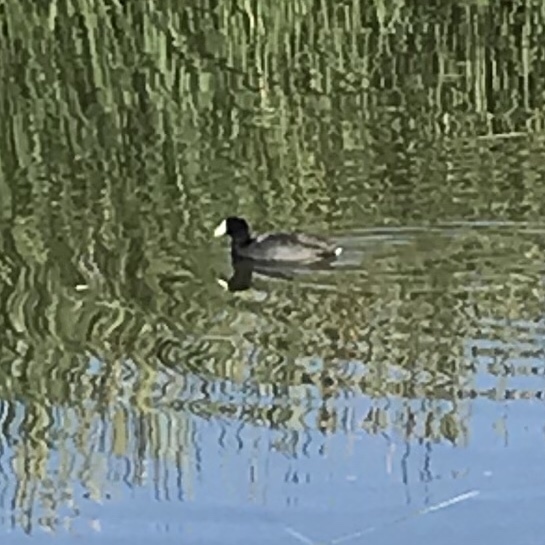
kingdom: Animalia
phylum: Chordata
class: Aves
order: Gruiformes
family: Rallidae
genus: Fulica
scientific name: Fulica americana
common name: American coot
